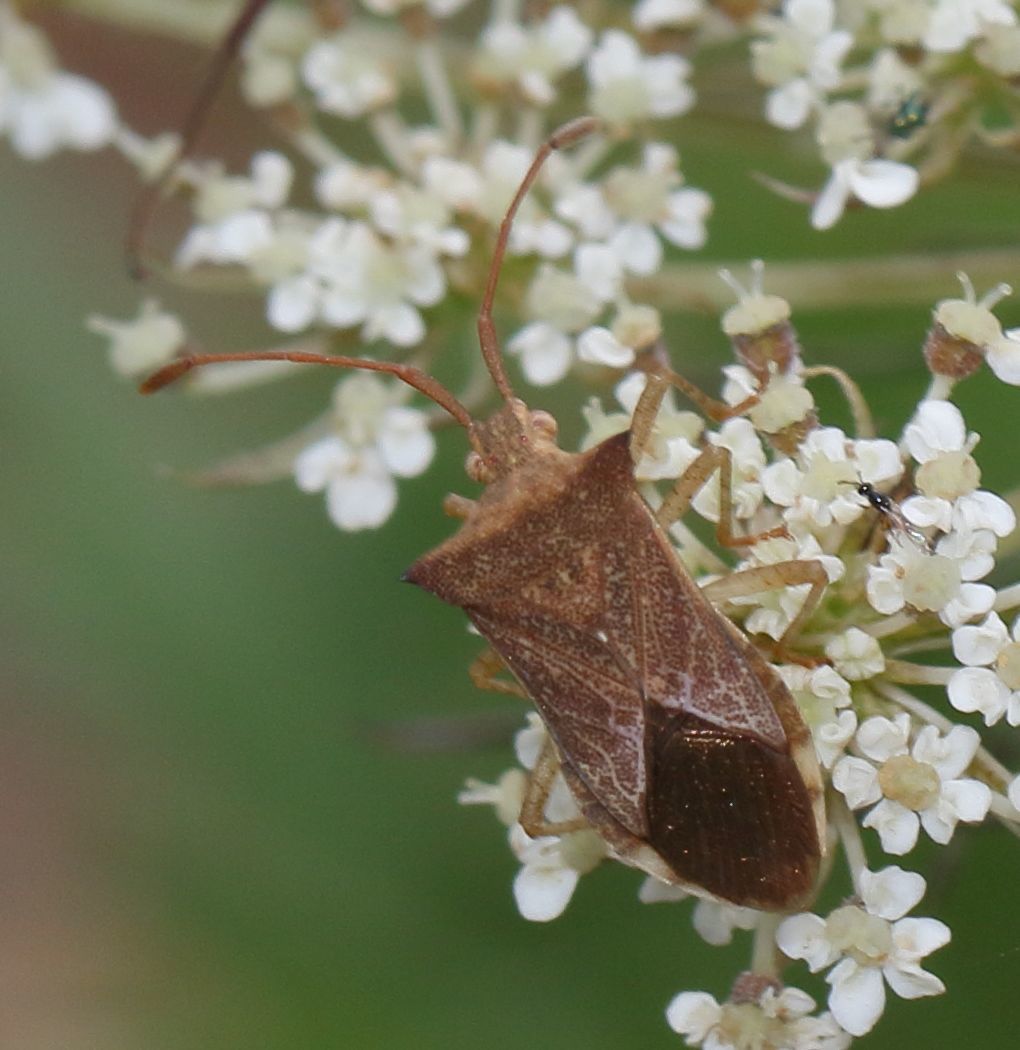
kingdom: Animalia
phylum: Arthropoda
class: Insecta
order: Hemiptera
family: Coreidae
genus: Cletus
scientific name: Cletus ochraceus
